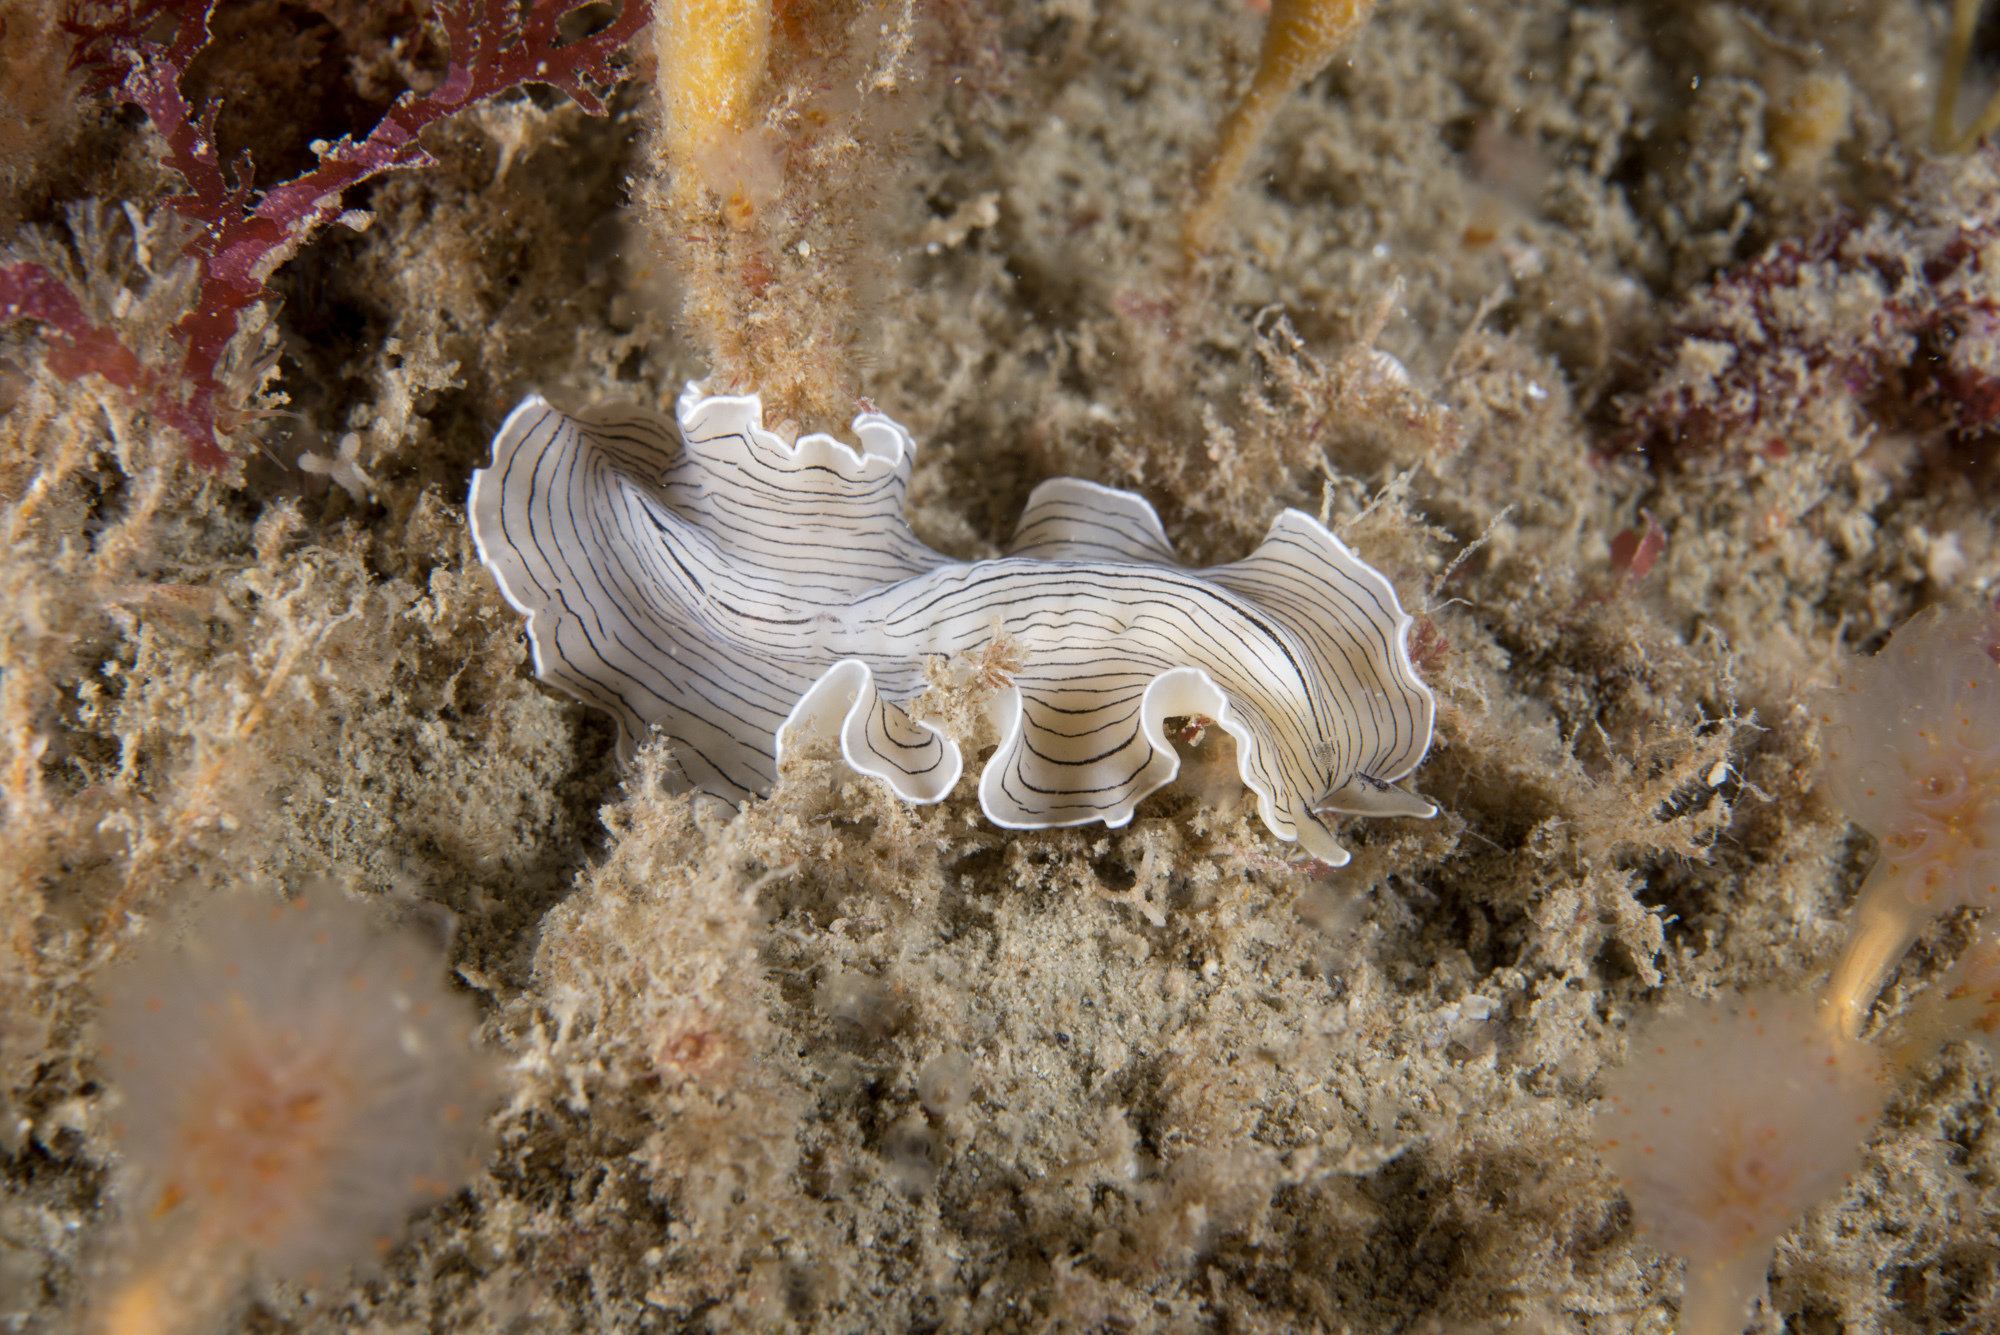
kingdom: Animalia
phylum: Platyhelminthes
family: Euryleptidae
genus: Prostheceraeus
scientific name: Prostheceraeus vittatus
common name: Candy striped flatworm
